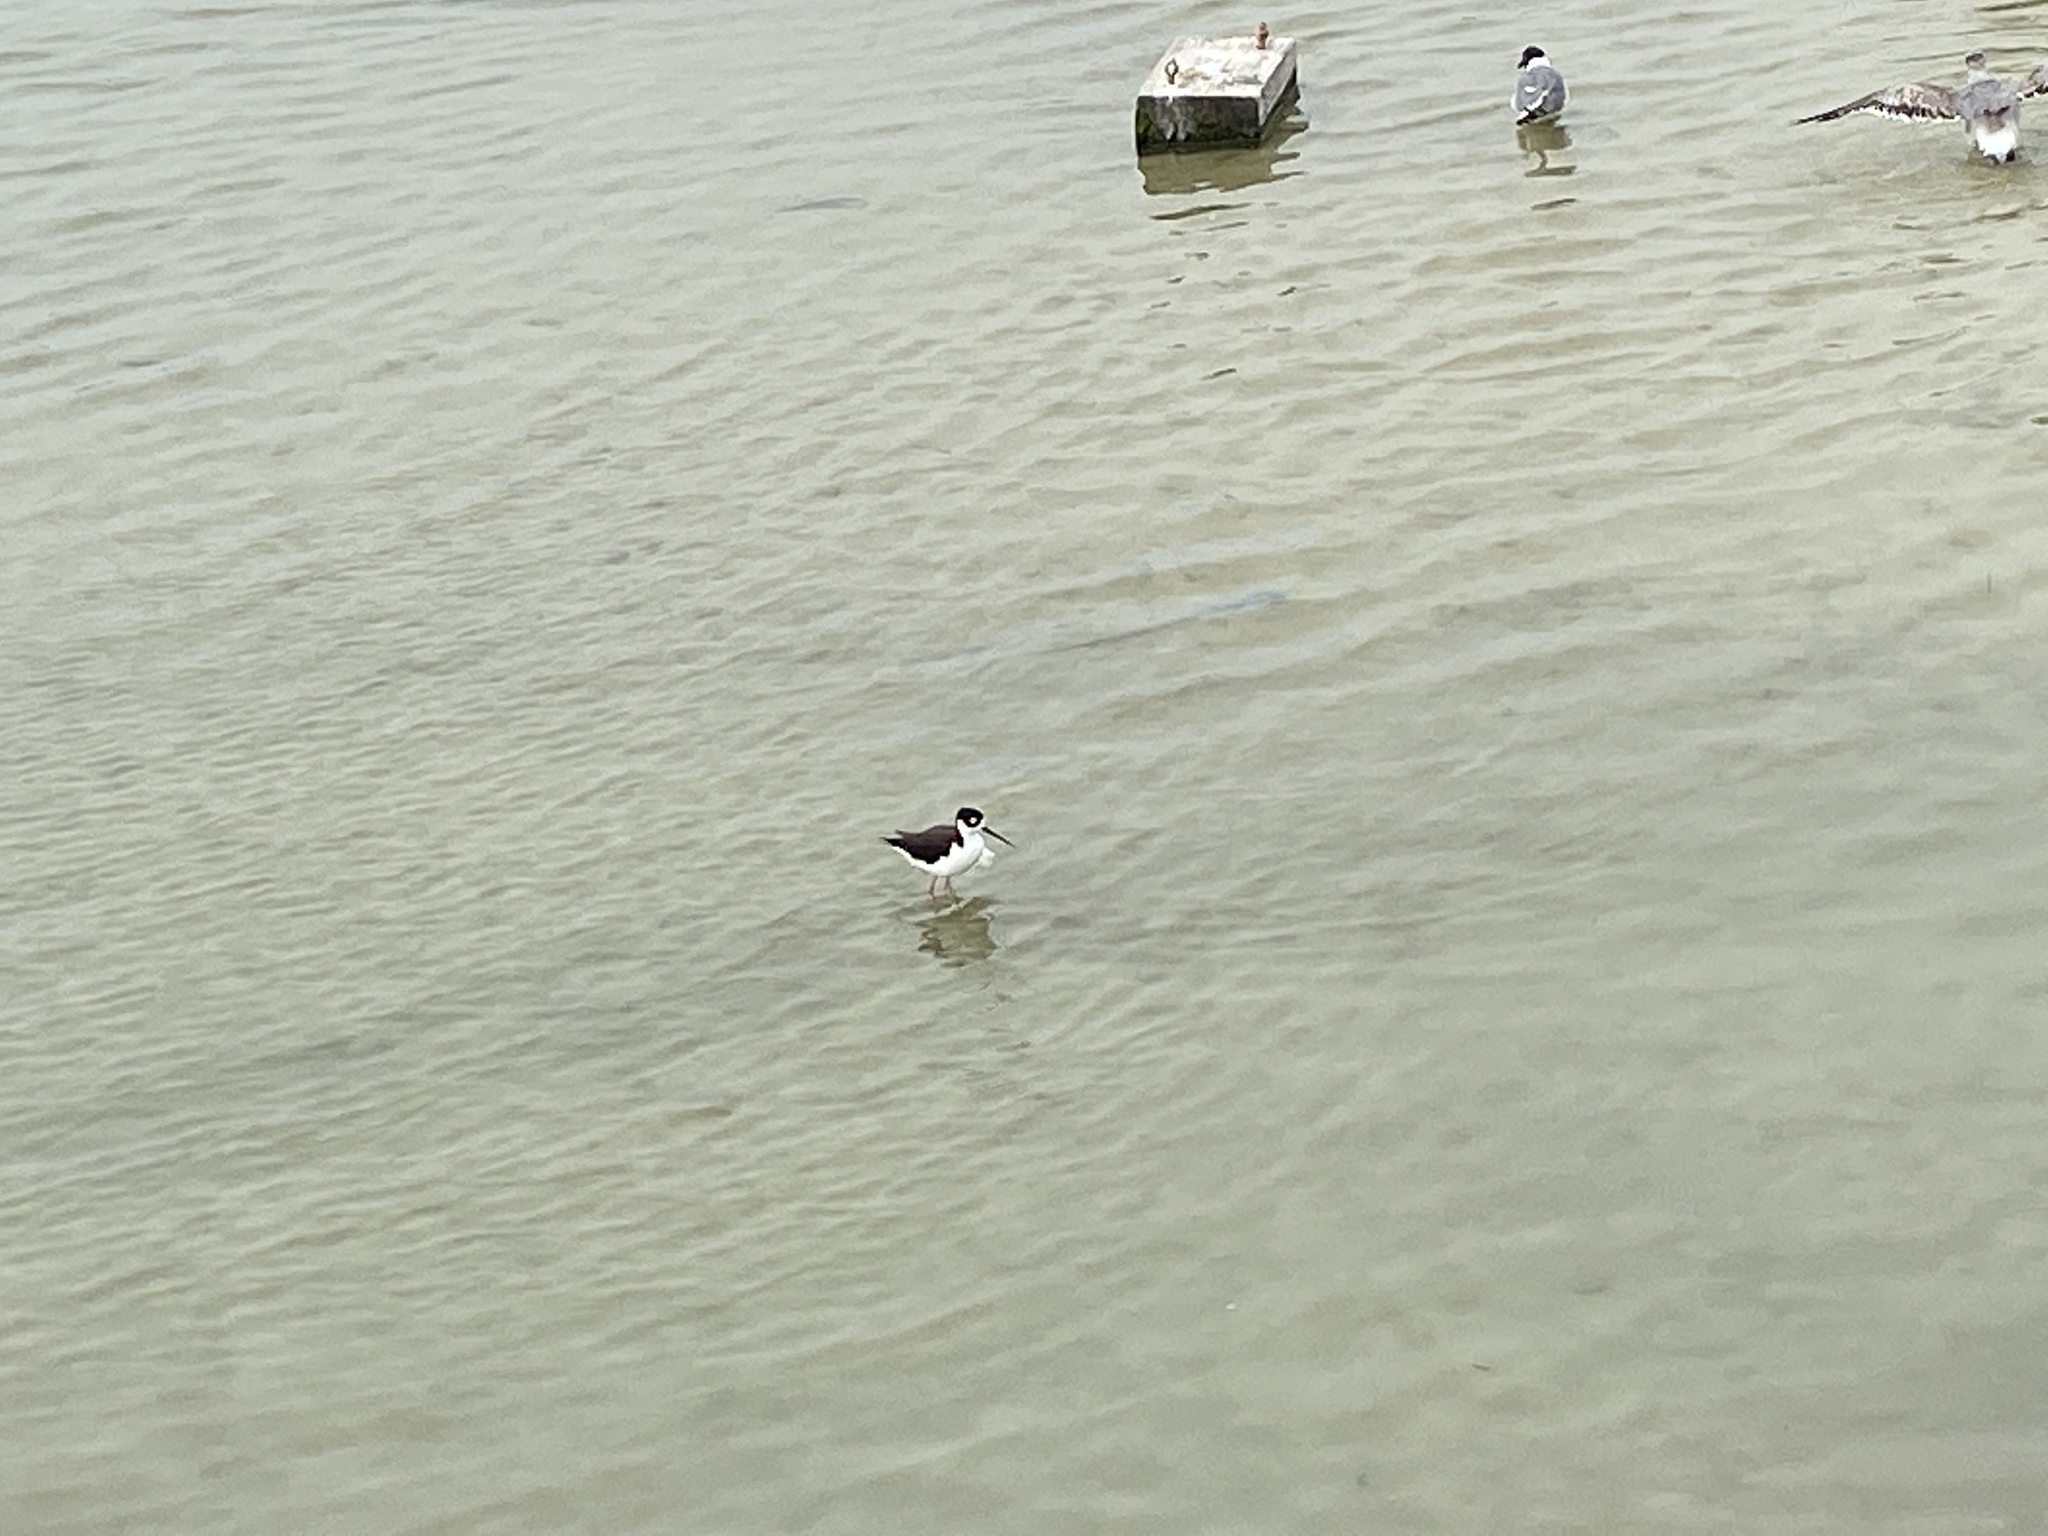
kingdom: Animalia
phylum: Chordata
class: Aves
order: Charadriiformes
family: Recurvirostridae
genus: Himantopus
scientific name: Himantopus mexicanus
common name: Black-necked stilt
